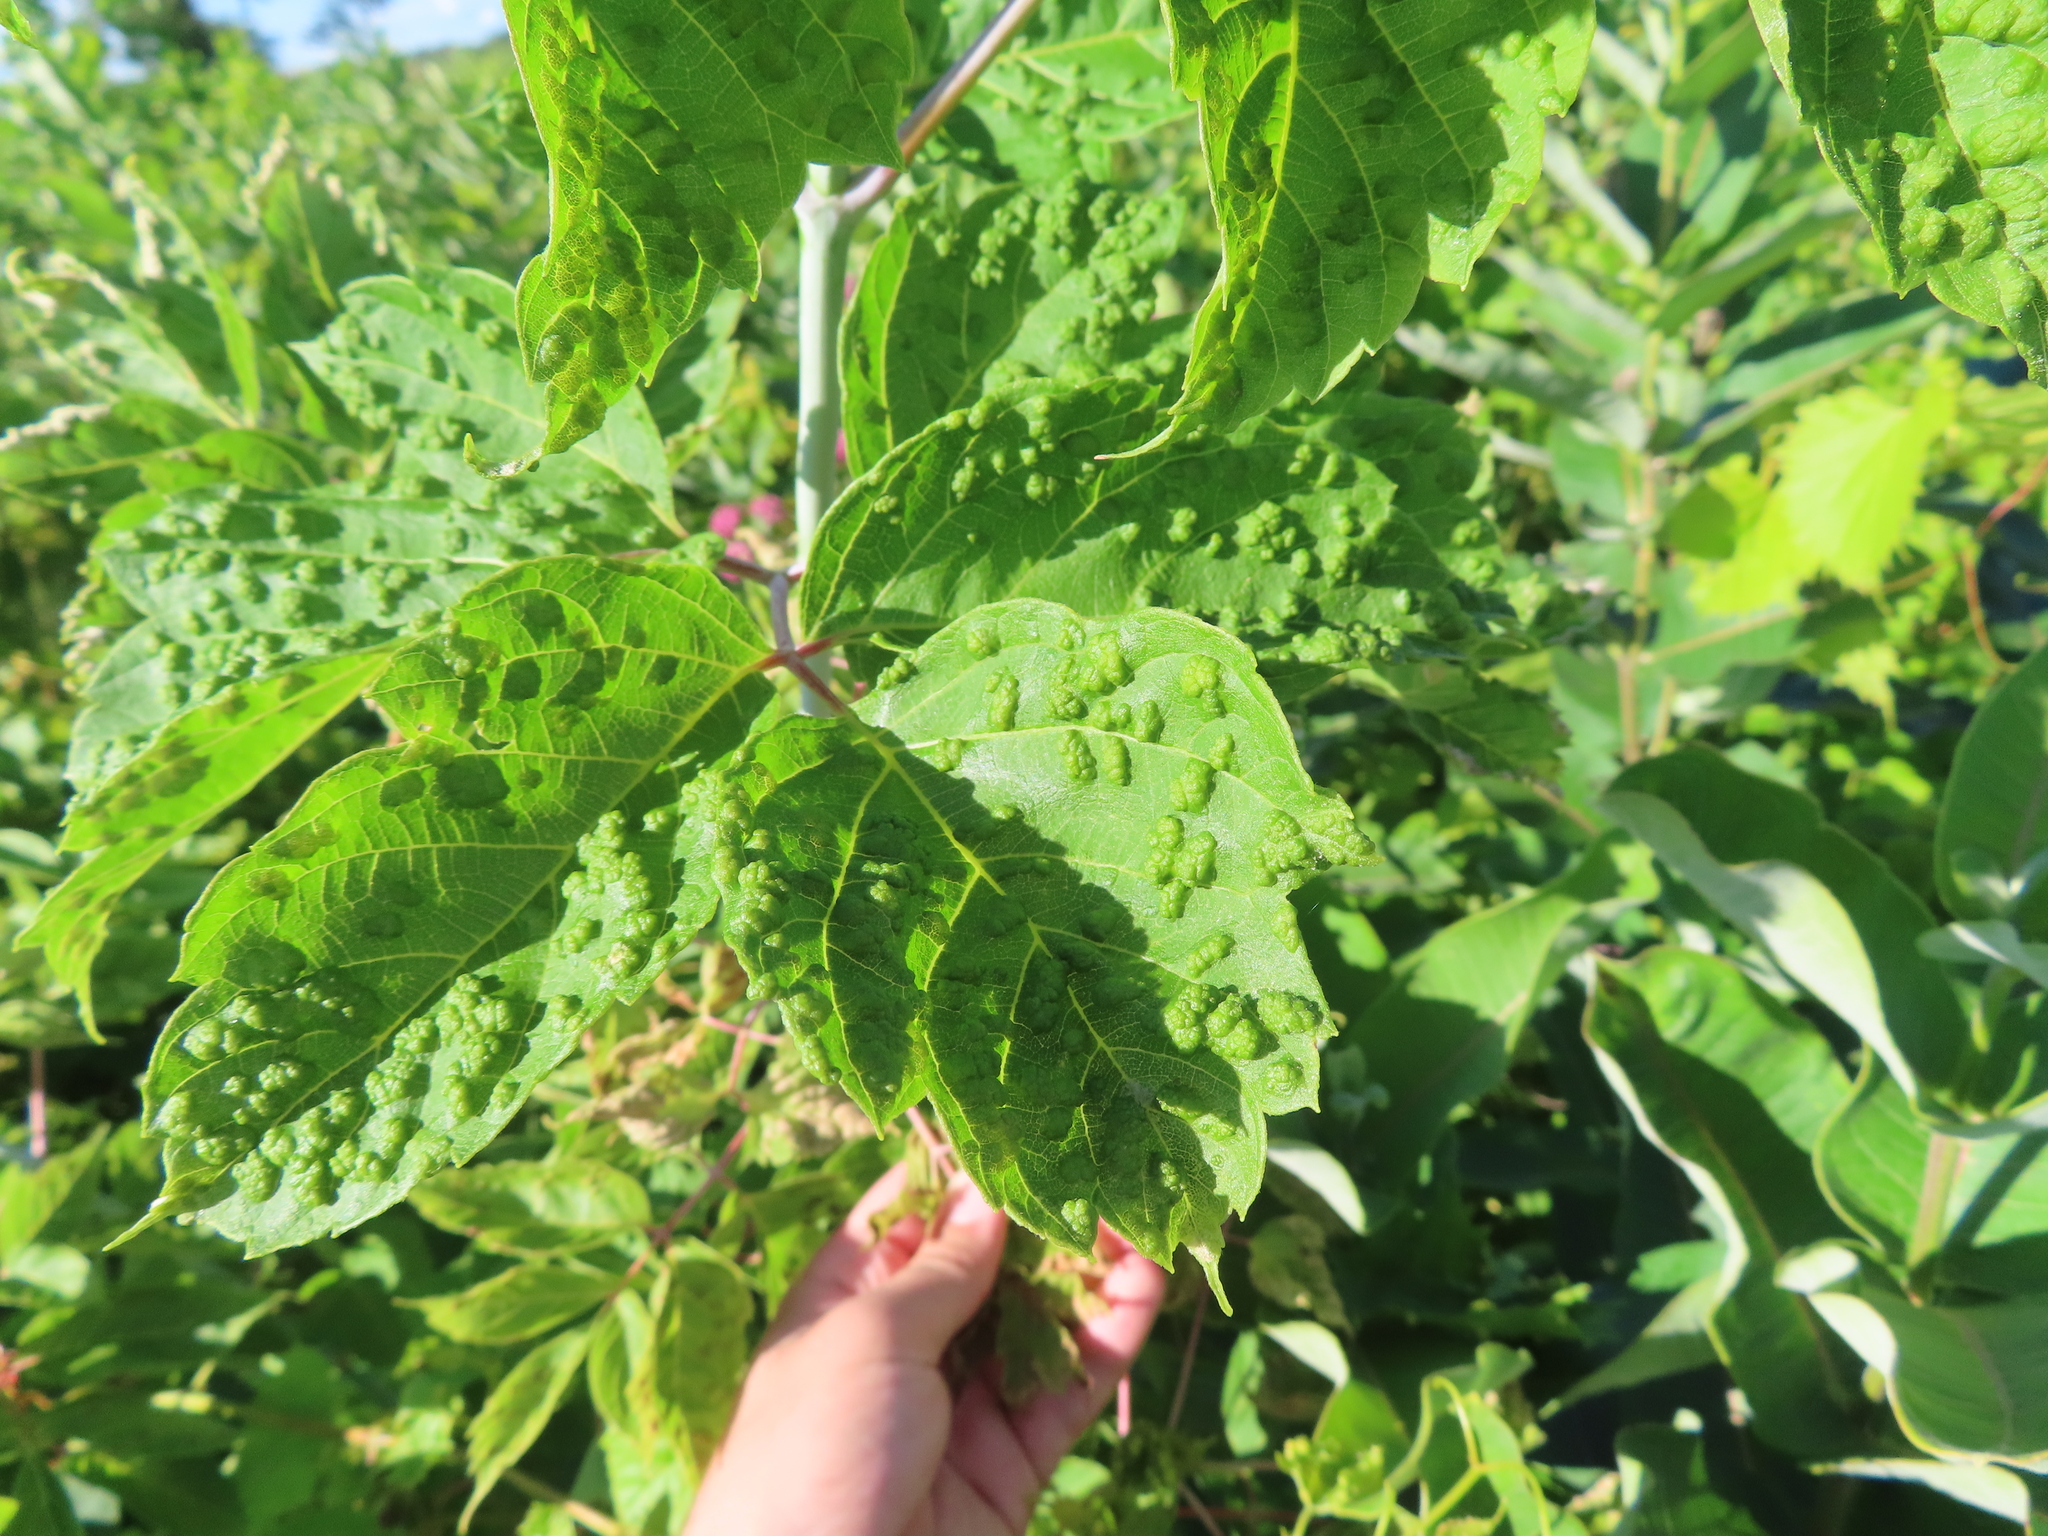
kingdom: Animalia
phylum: Arthropoda
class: Arachnida
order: Trombidiformes
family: Eriophyidae
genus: Aceria
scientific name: Aceria
